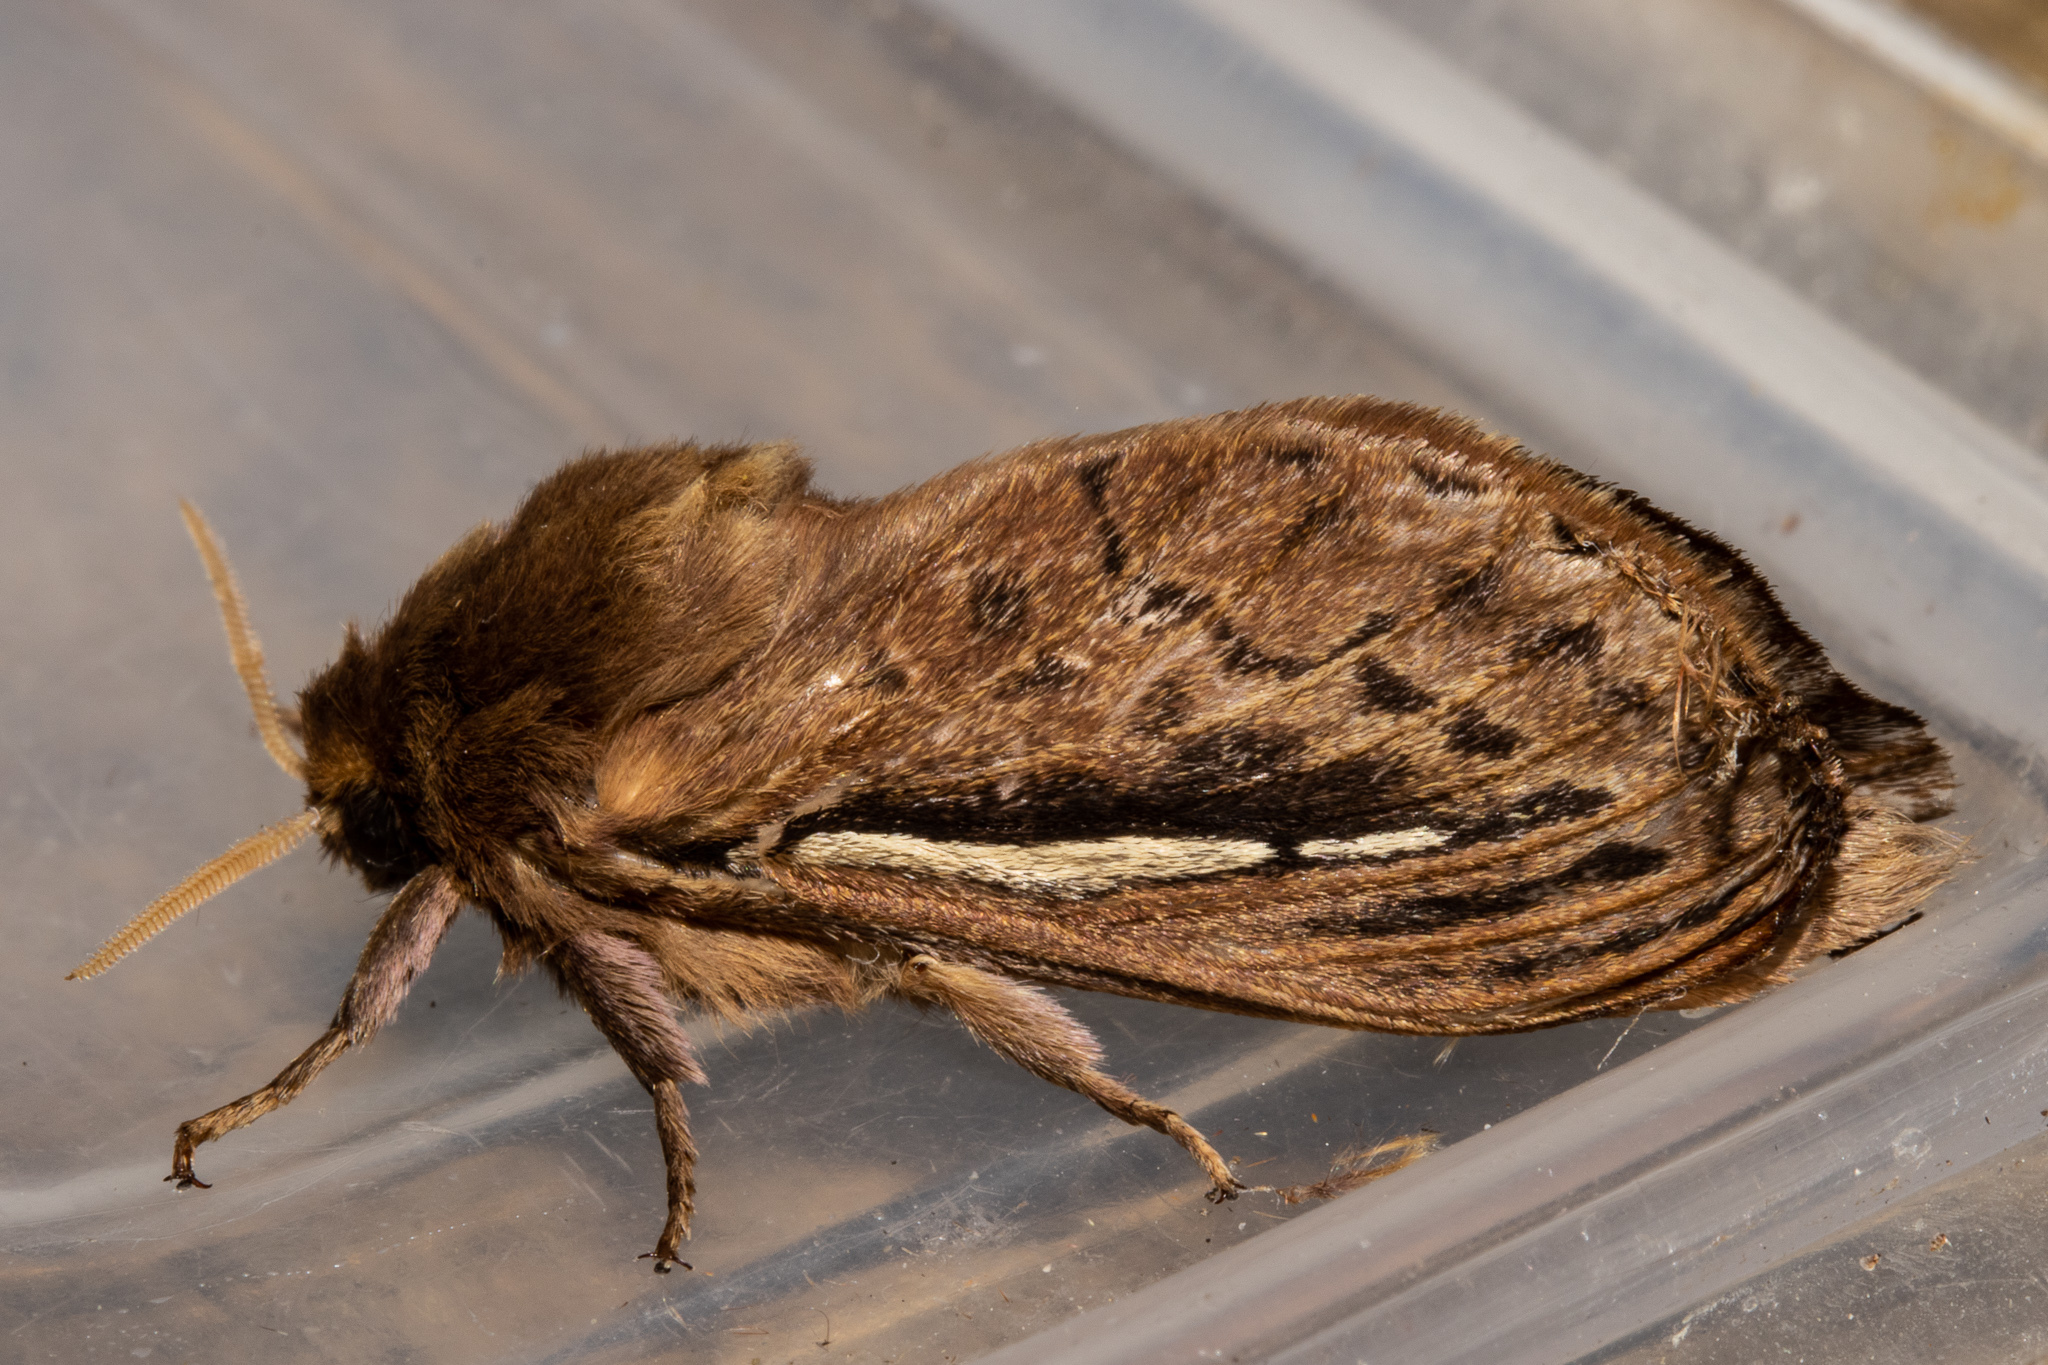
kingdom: Animalia
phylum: Arthropoda
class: Insecta
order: Lepidoptera
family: Hepialidae
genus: Wiseana
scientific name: Wiseana umbraculatus
